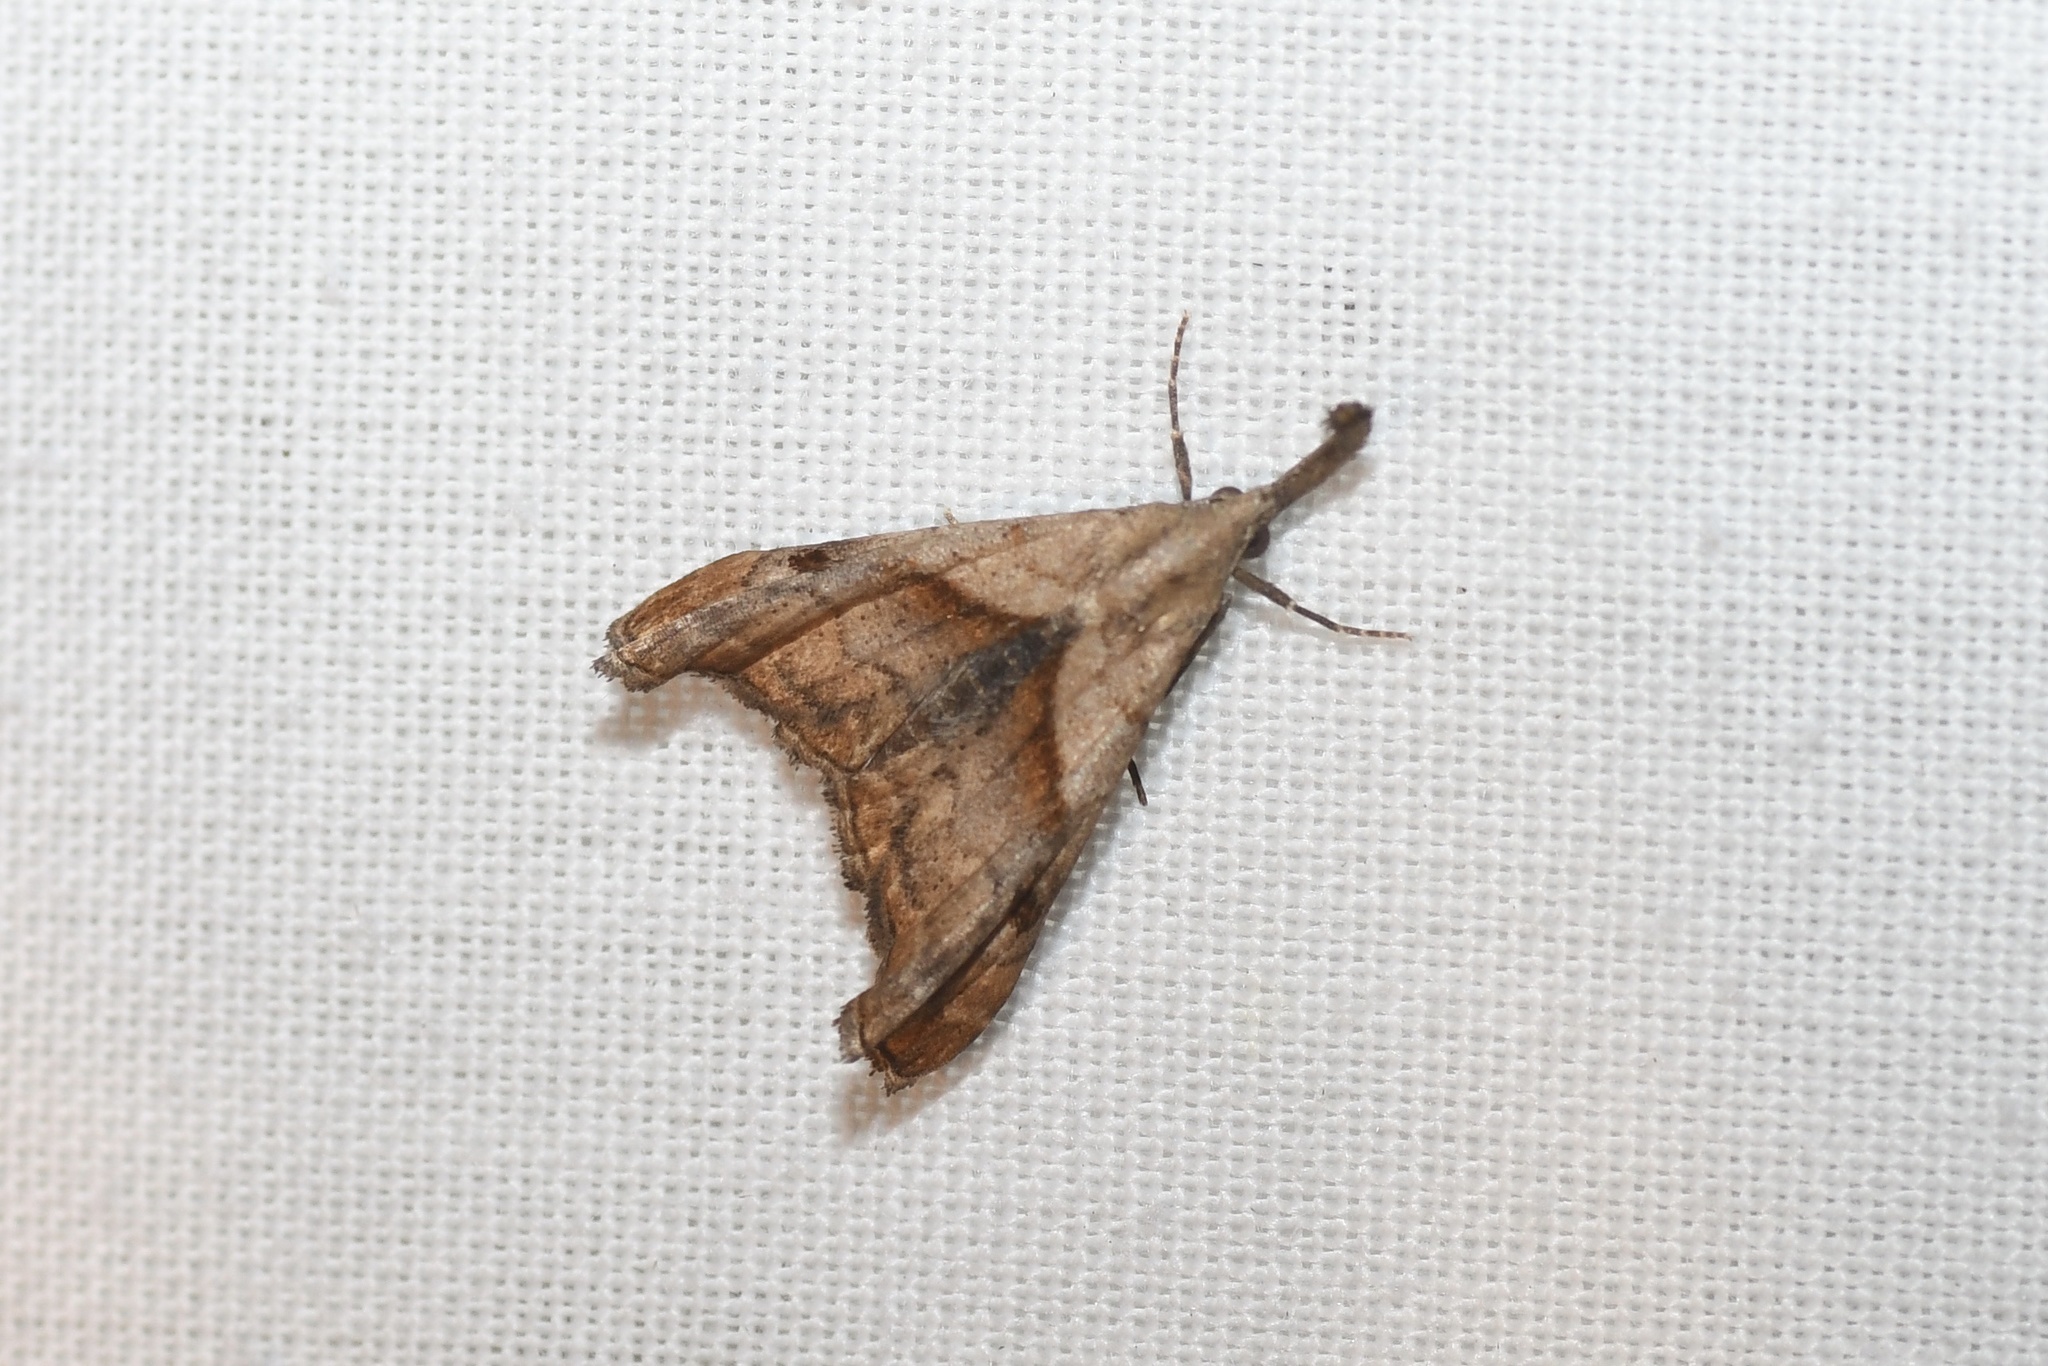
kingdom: Animalia
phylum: Arthropoda
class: Insecta
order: Lepidoptera
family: Erebidae
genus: Palthis
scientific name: Palthis angulalis
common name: Dark-spotted palthis moth
